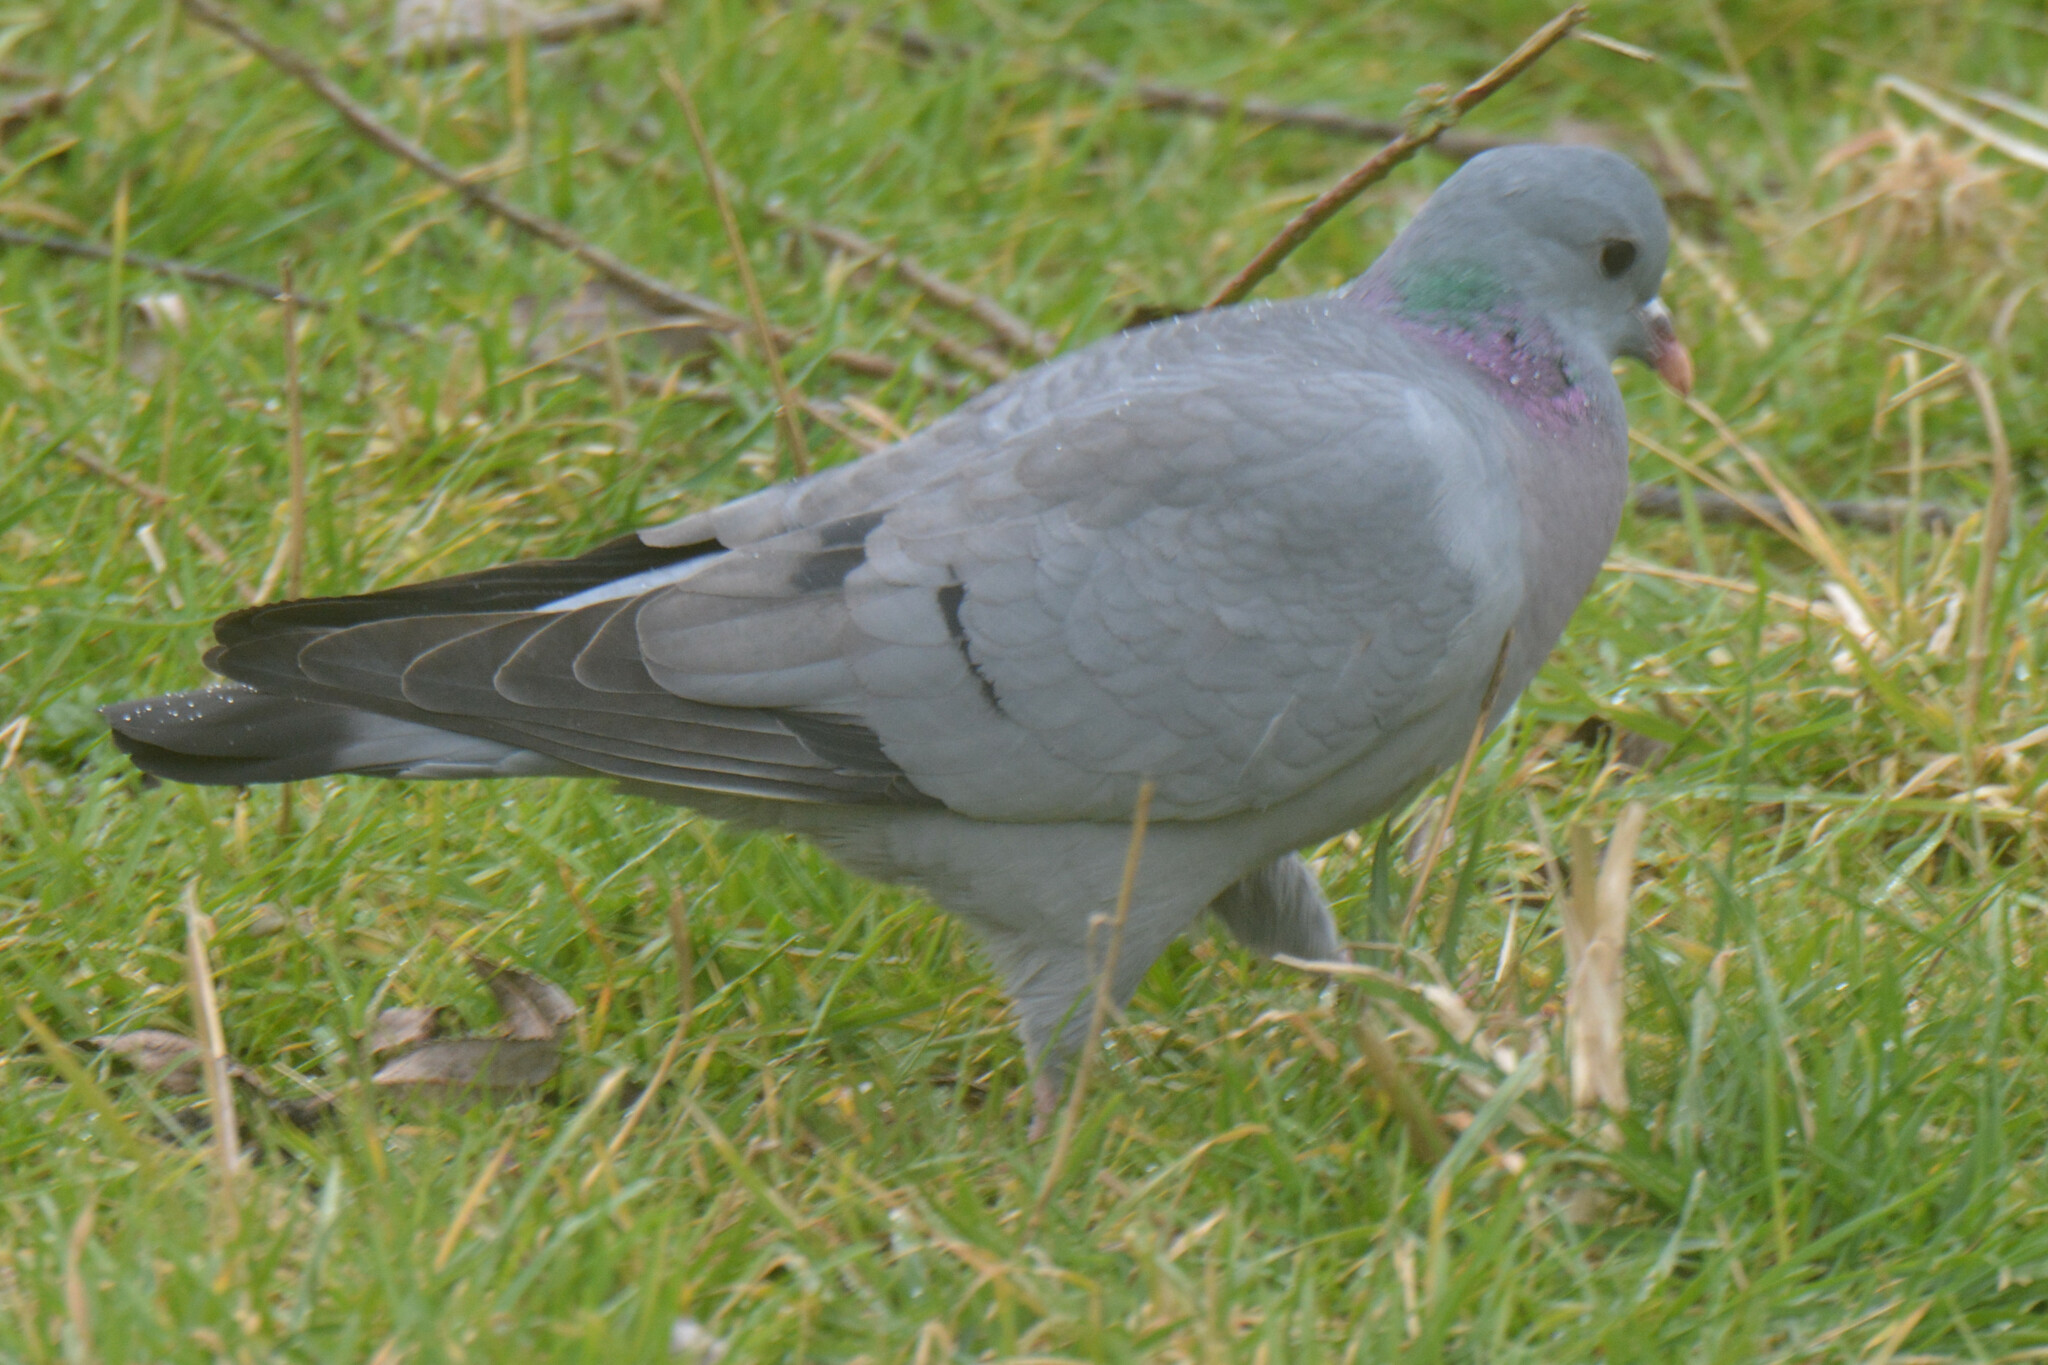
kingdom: Animalia
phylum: Chordata
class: Aves
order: Columbiformes
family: Columbidae
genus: Columba
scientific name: Columba oenas
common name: Stock dove
